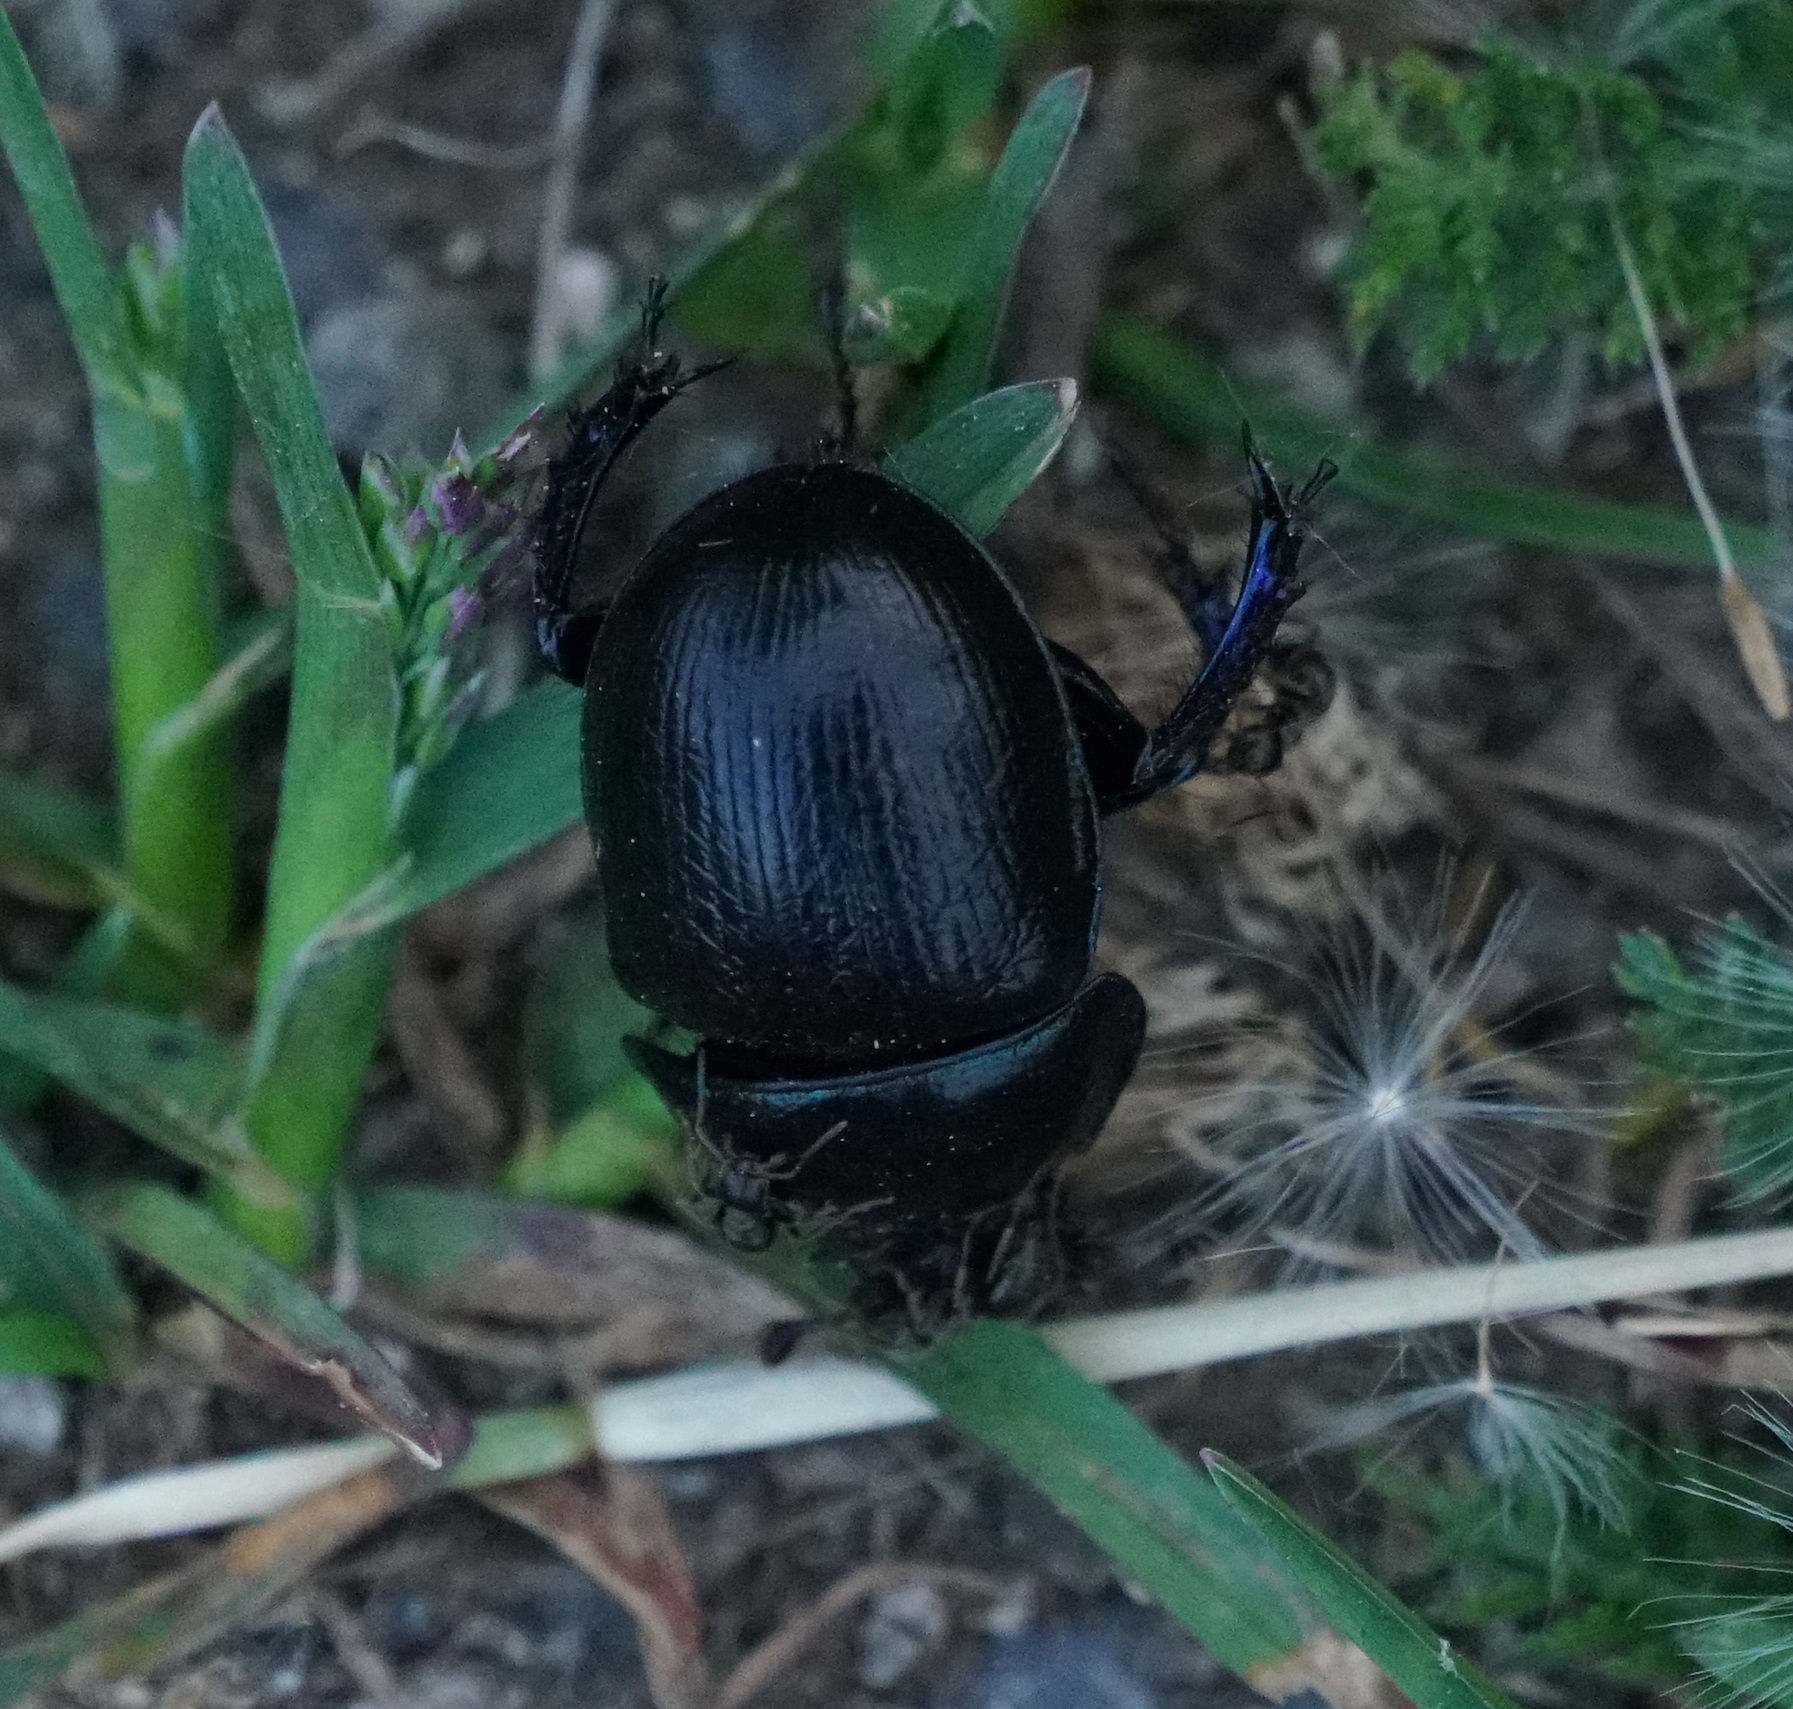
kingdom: Animalia
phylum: Arthropoda
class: Insecta
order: Coleoptera
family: Geotrupidae
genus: Anoplotrupes
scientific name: Anoplotrupes stercorosus
